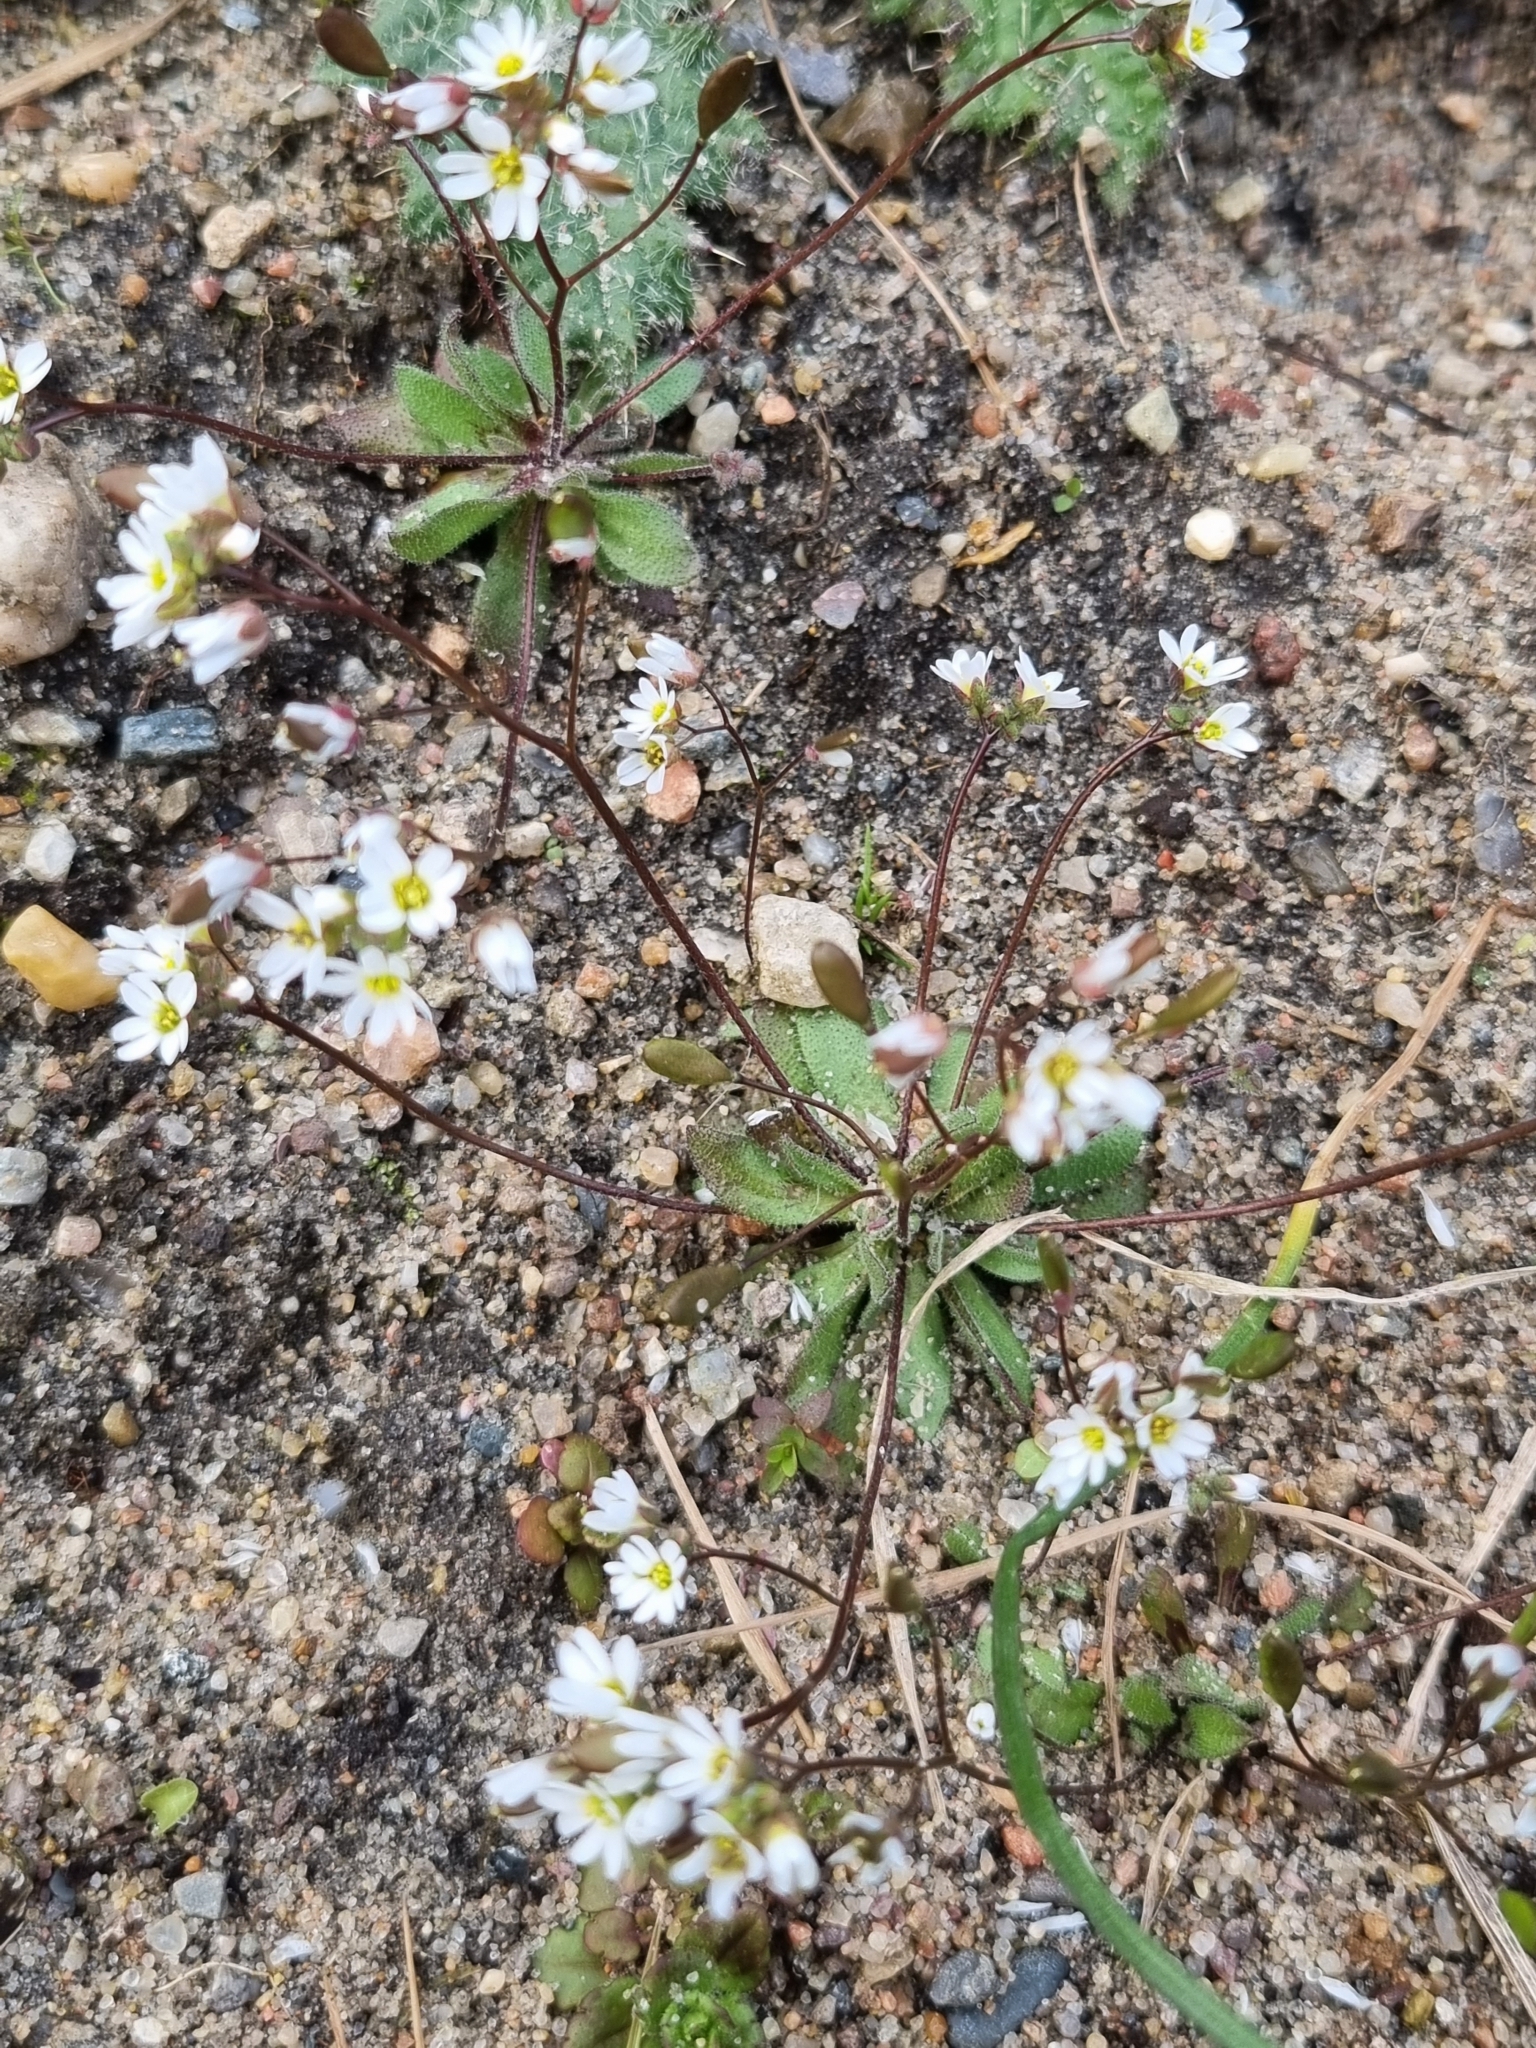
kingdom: Plantae
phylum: Tracheophyta
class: Magnoliopsida
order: Brassicales
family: Brassicaceae
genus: Draba
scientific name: Draba verna
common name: Spring draba
